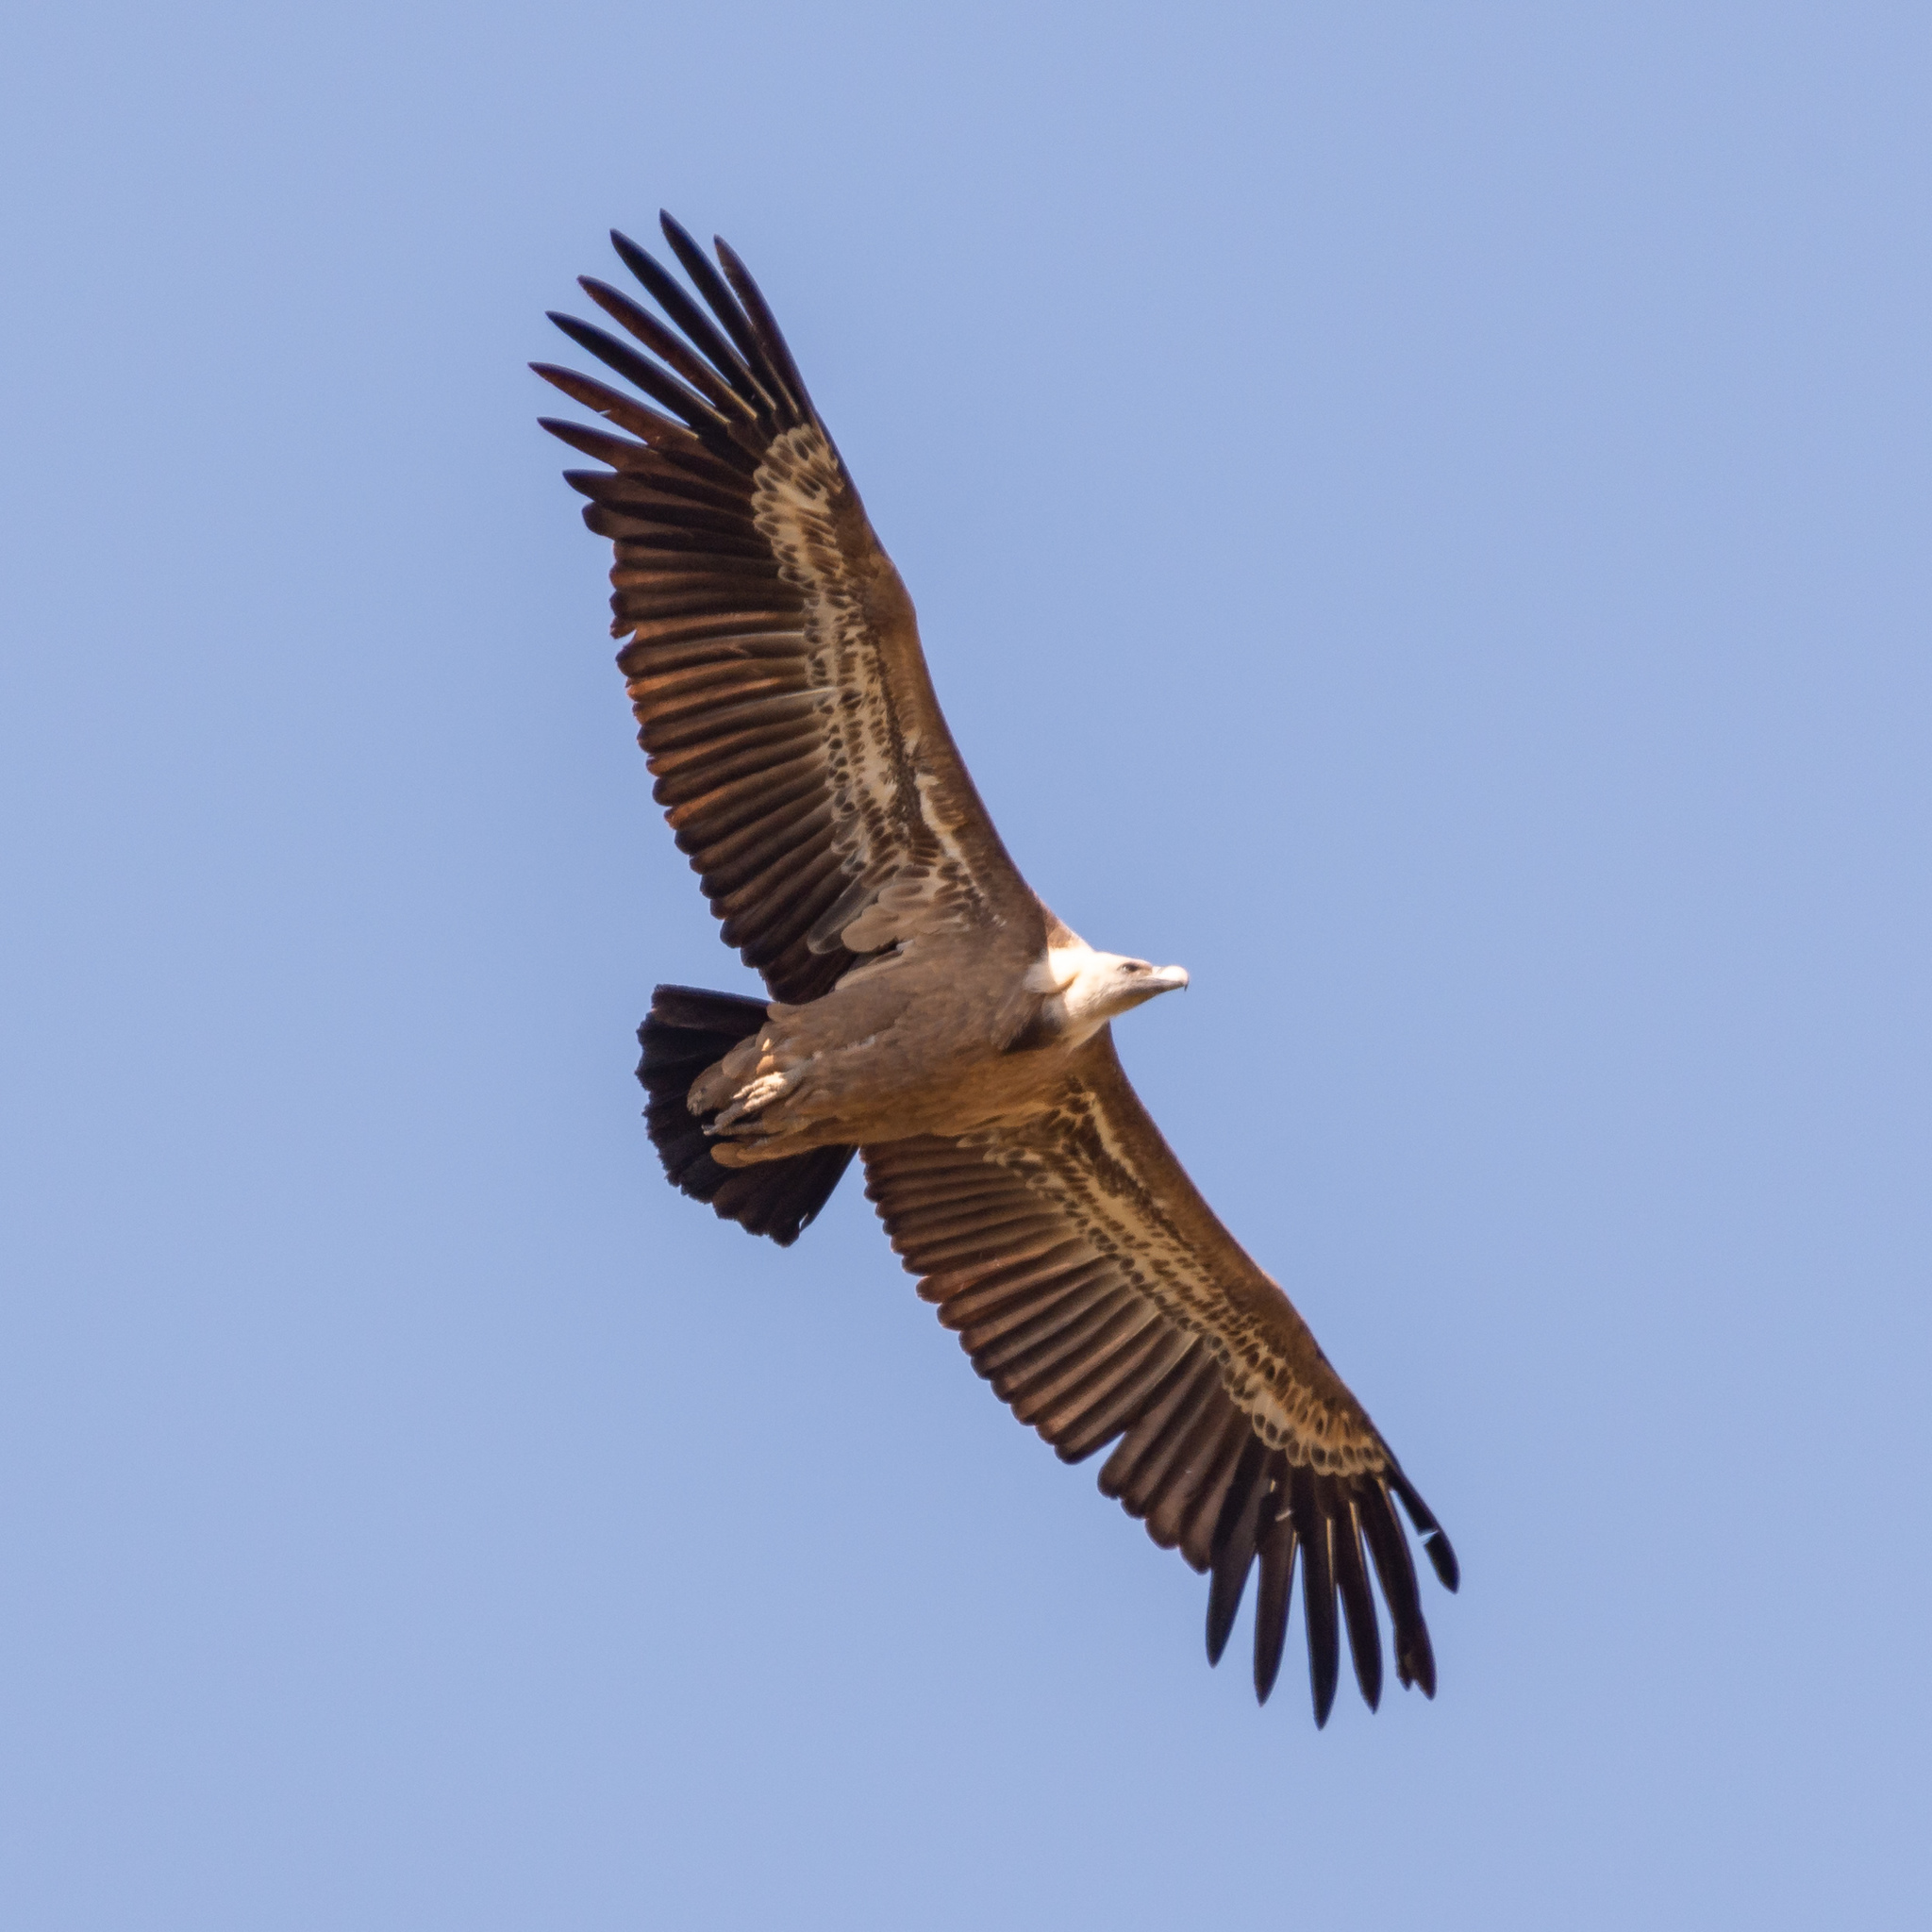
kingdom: Animalia
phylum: Chordata
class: Aves
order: Accipitriformes
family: Accipitridae
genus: Gyps
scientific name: Gyps fulvus
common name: Griffon vulture
